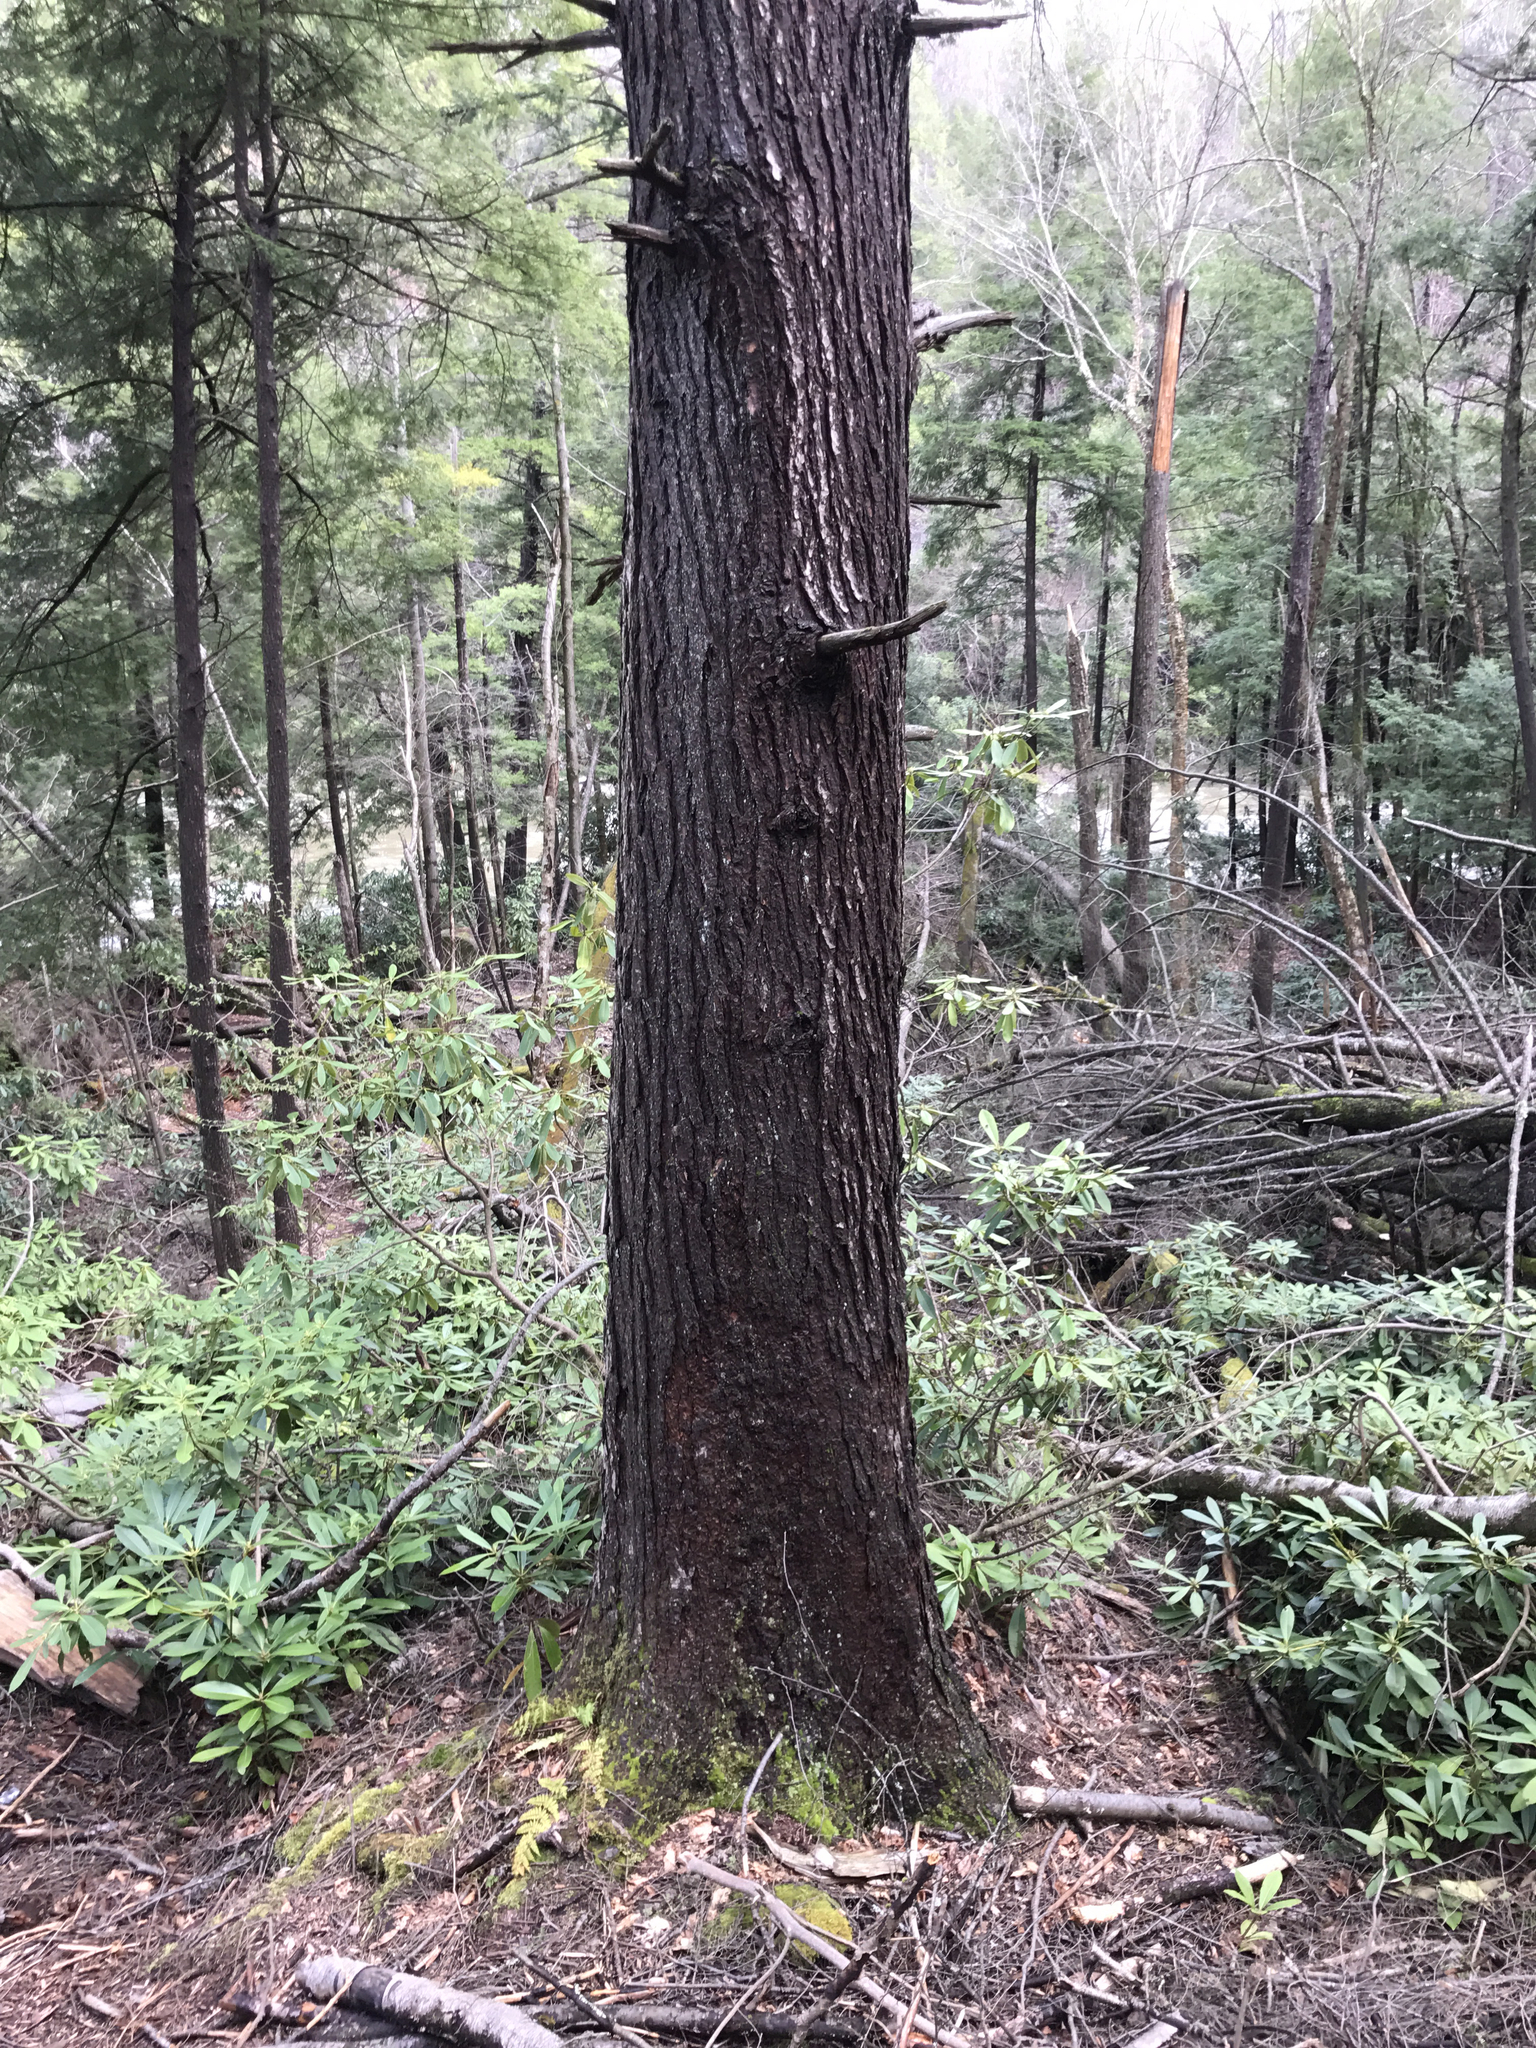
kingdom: Plantae
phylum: Tracheophyta
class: Pinopsida
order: Pinales
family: Pinaceae
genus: Tsuga
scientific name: Tsuga canadensis
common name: Eastern hemlock
